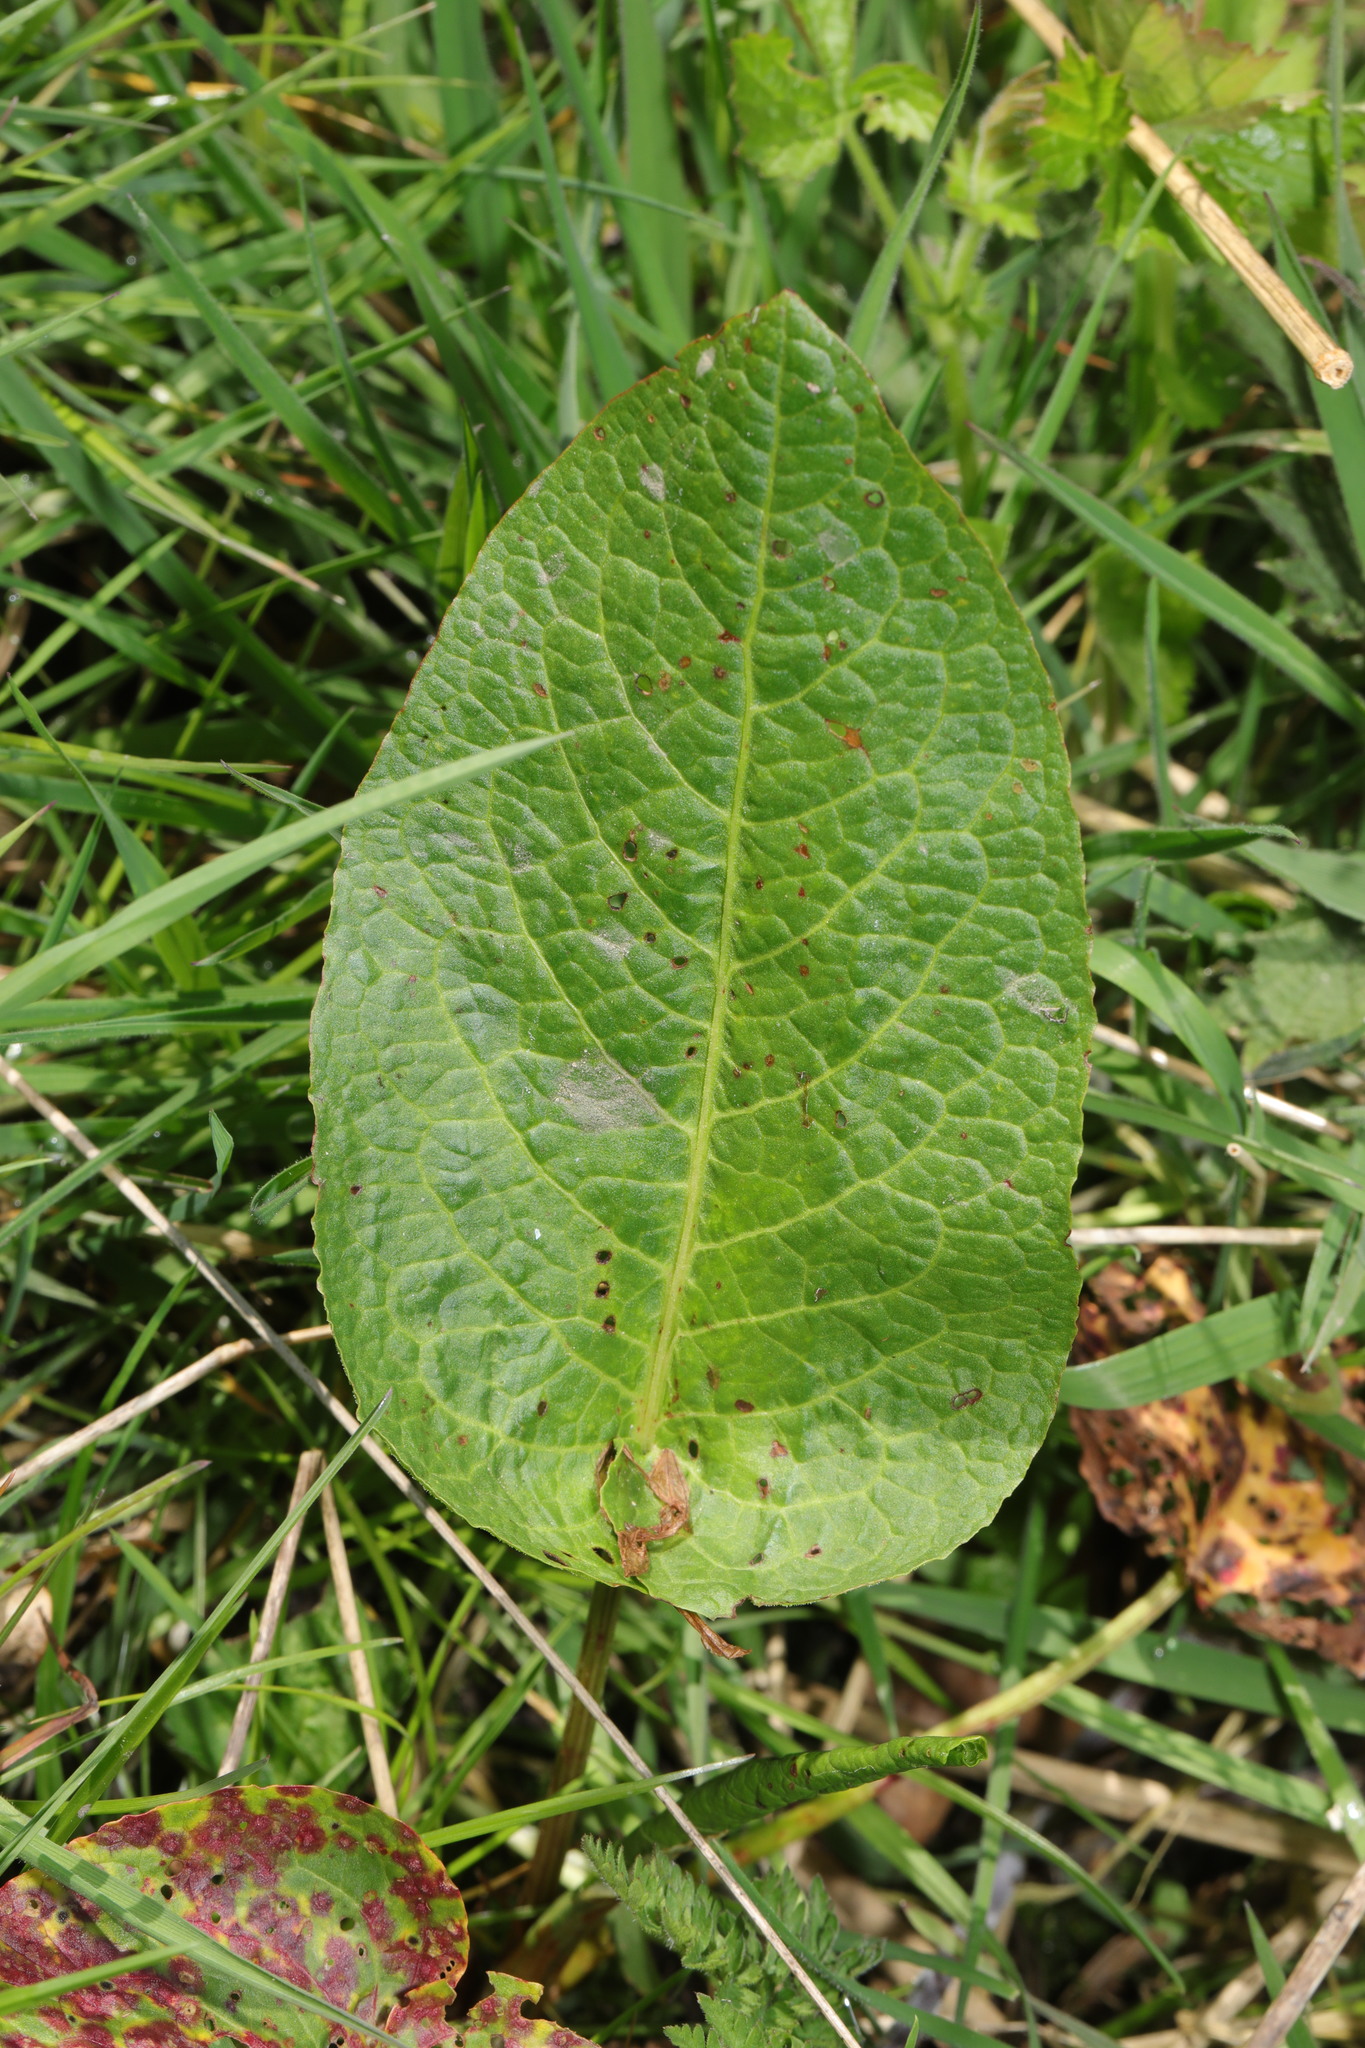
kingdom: Plantae
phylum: Tracheophyta
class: Magnoliopsida
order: Caryophyllales
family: Polygonaceae
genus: Rumex
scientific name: Rumex obtusifolius
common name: Bitter dock
